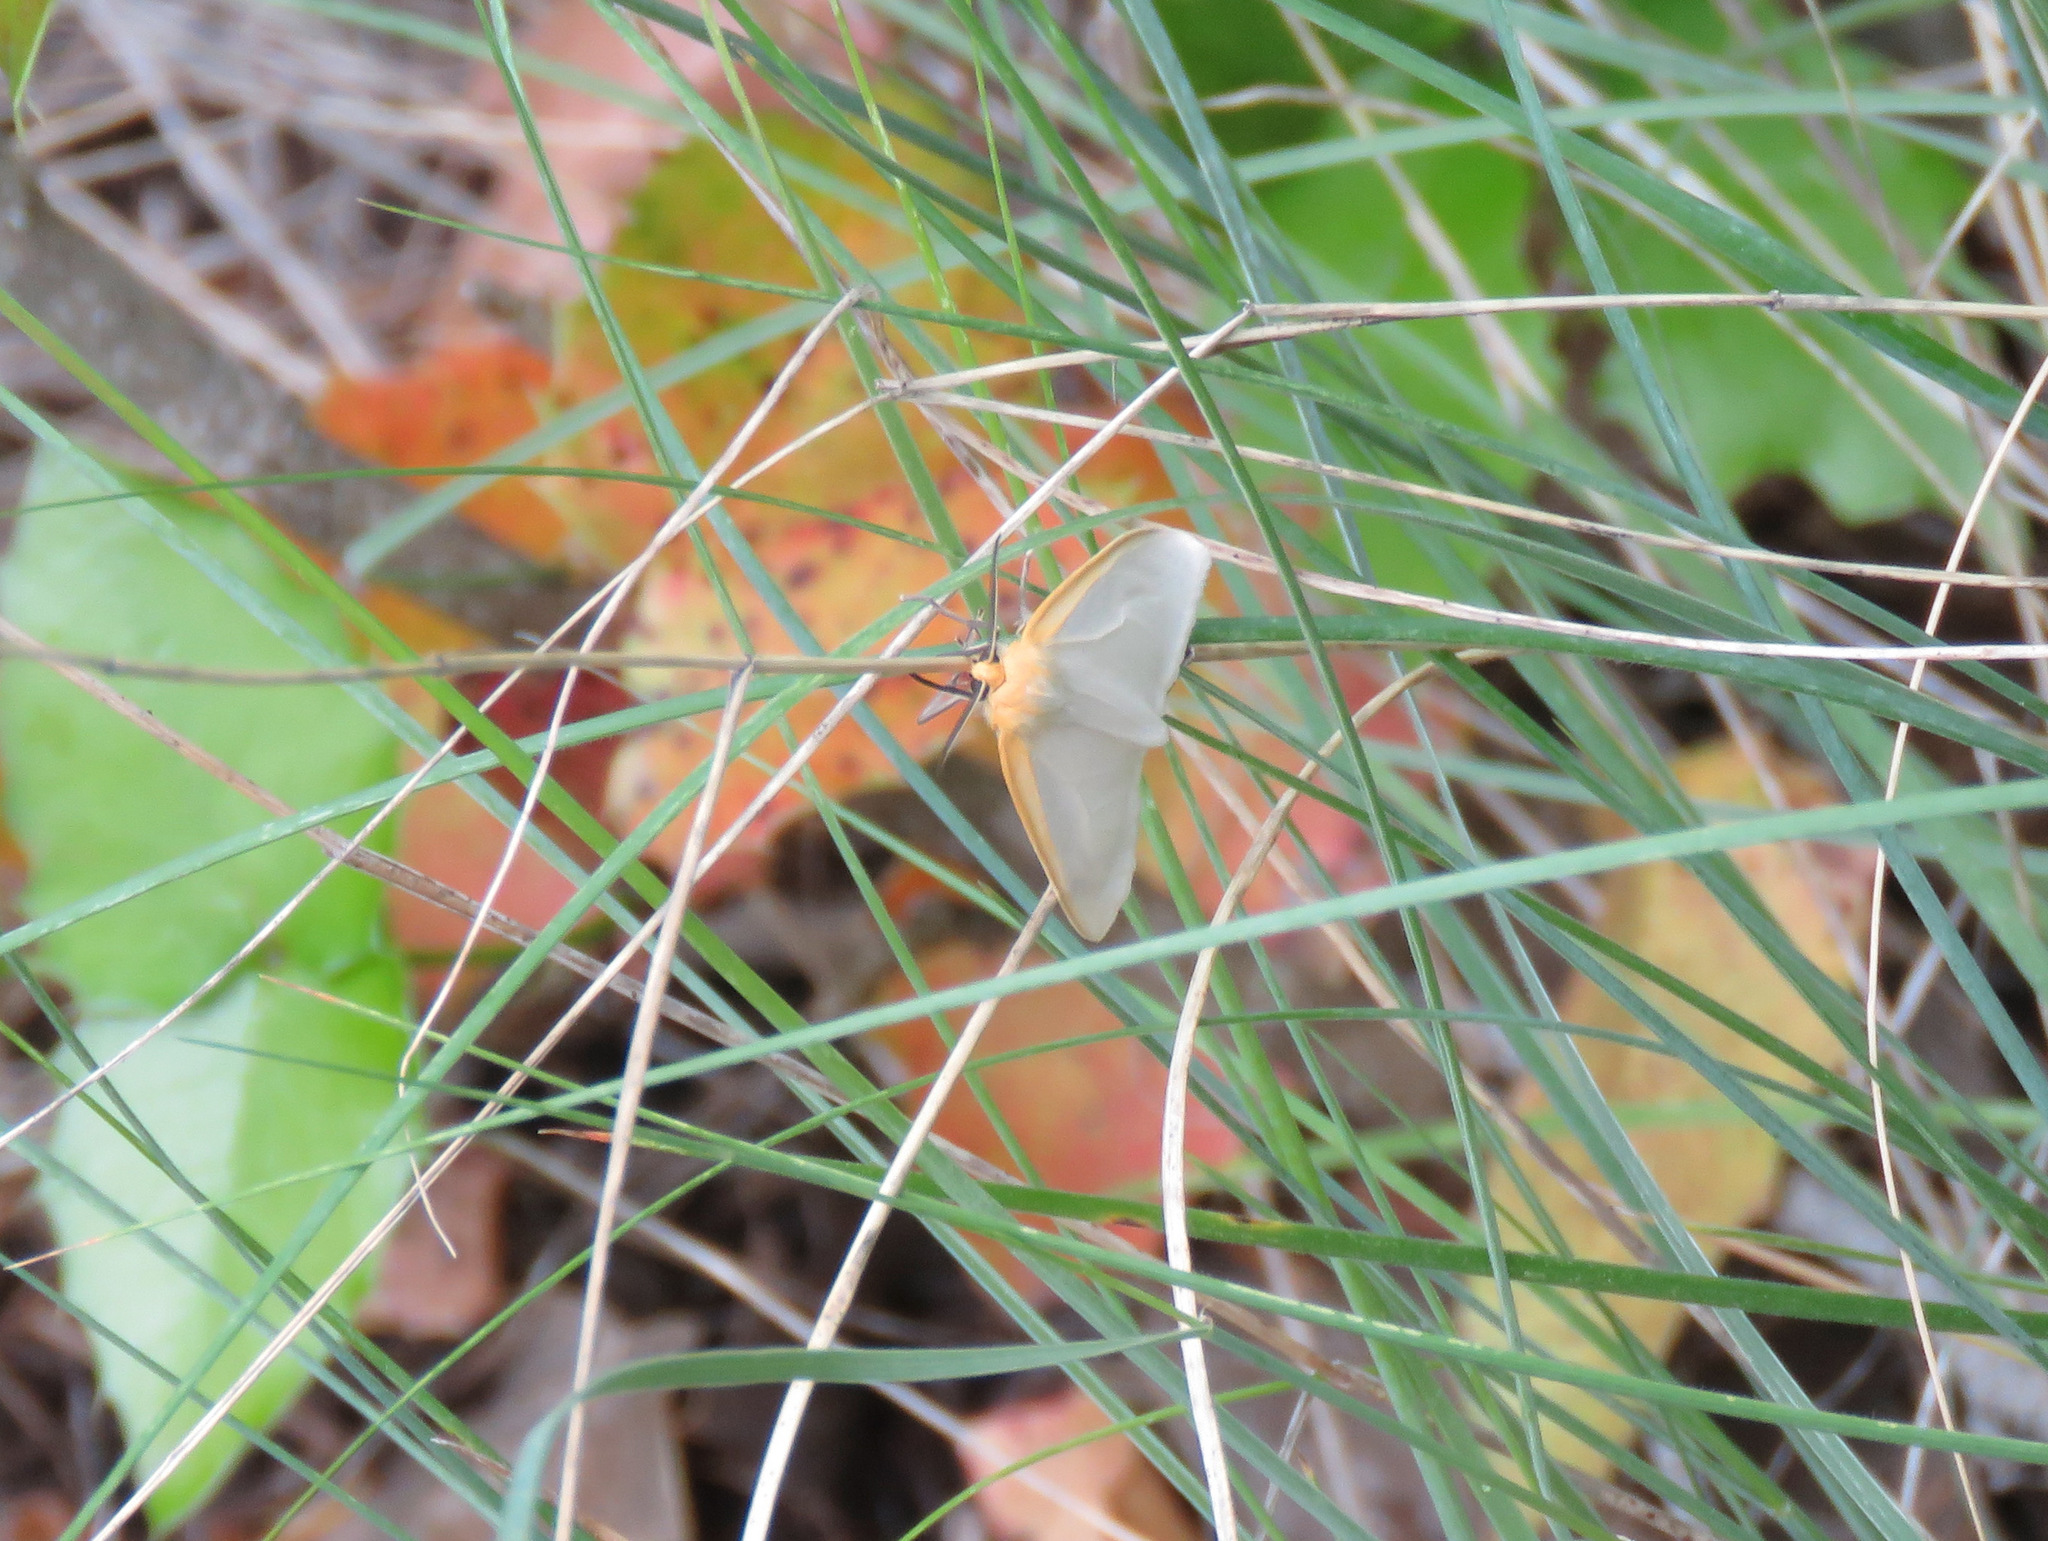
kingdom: Animalia
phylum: Arthropoda
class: Insecta
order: Lepidoptera
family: Erebidae
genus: Cycnia
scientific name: Cycnia tenera
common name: Delicate cycnia moth
